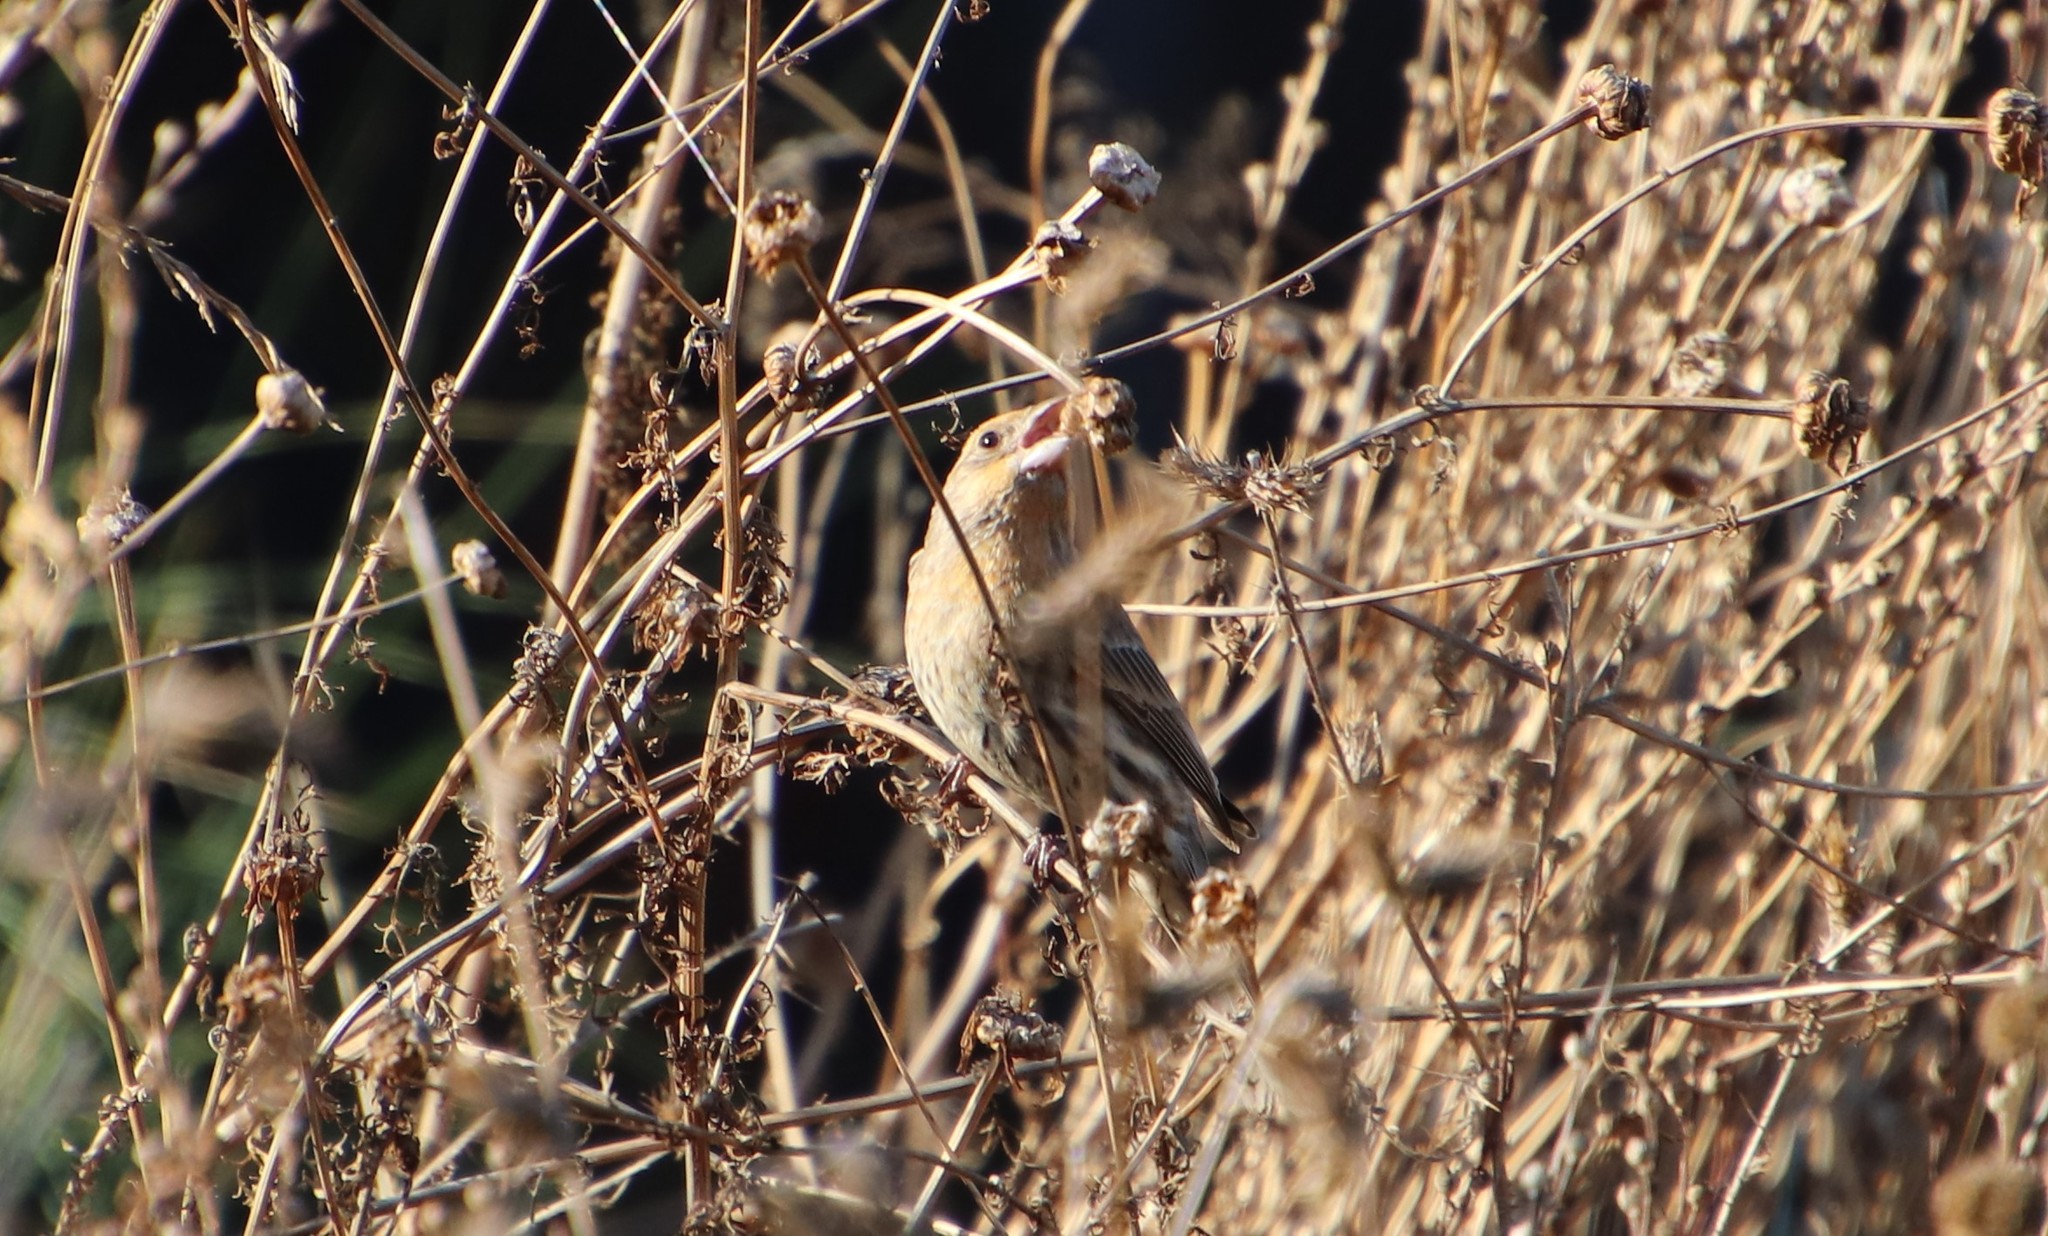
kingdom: Animalia
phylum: Chordata
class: Aves
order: Passeriformes
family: Fringillidae
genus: Haemorhous
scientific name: Haemorhous mexicanus
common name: House finch
